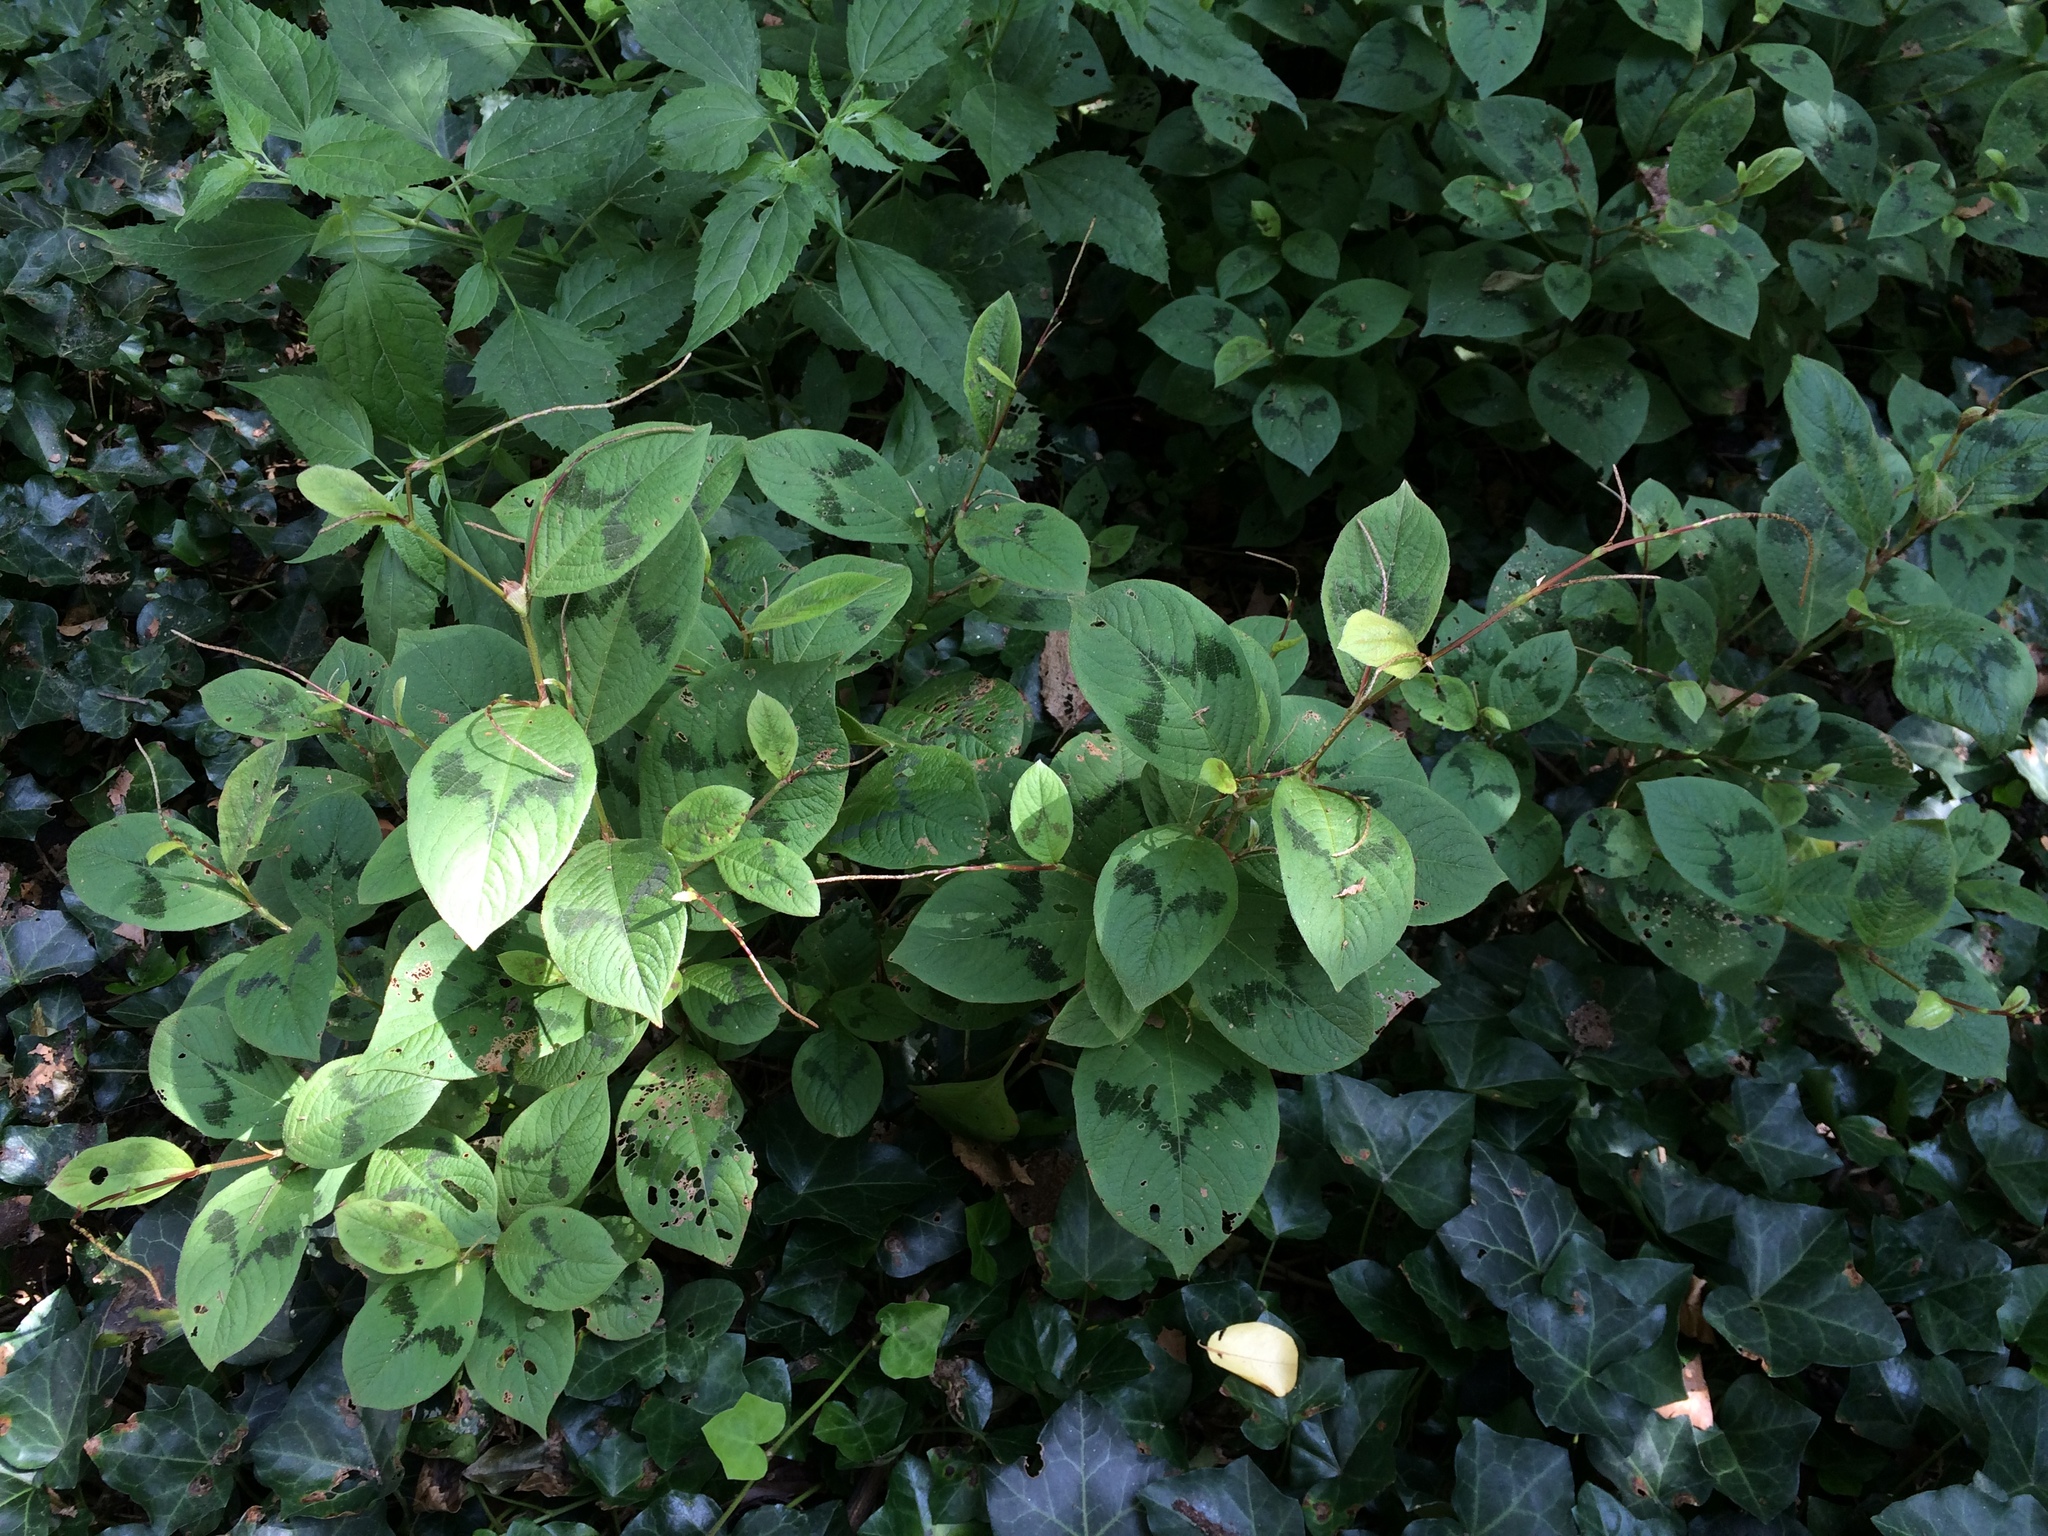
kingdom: Plantae
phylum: Tracheophyta
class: Magnoliopsida
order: Caryophyllales
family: Polygonaceae
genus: Persicaria
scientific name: Persicaria filiformis
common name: Asian jumpseed
